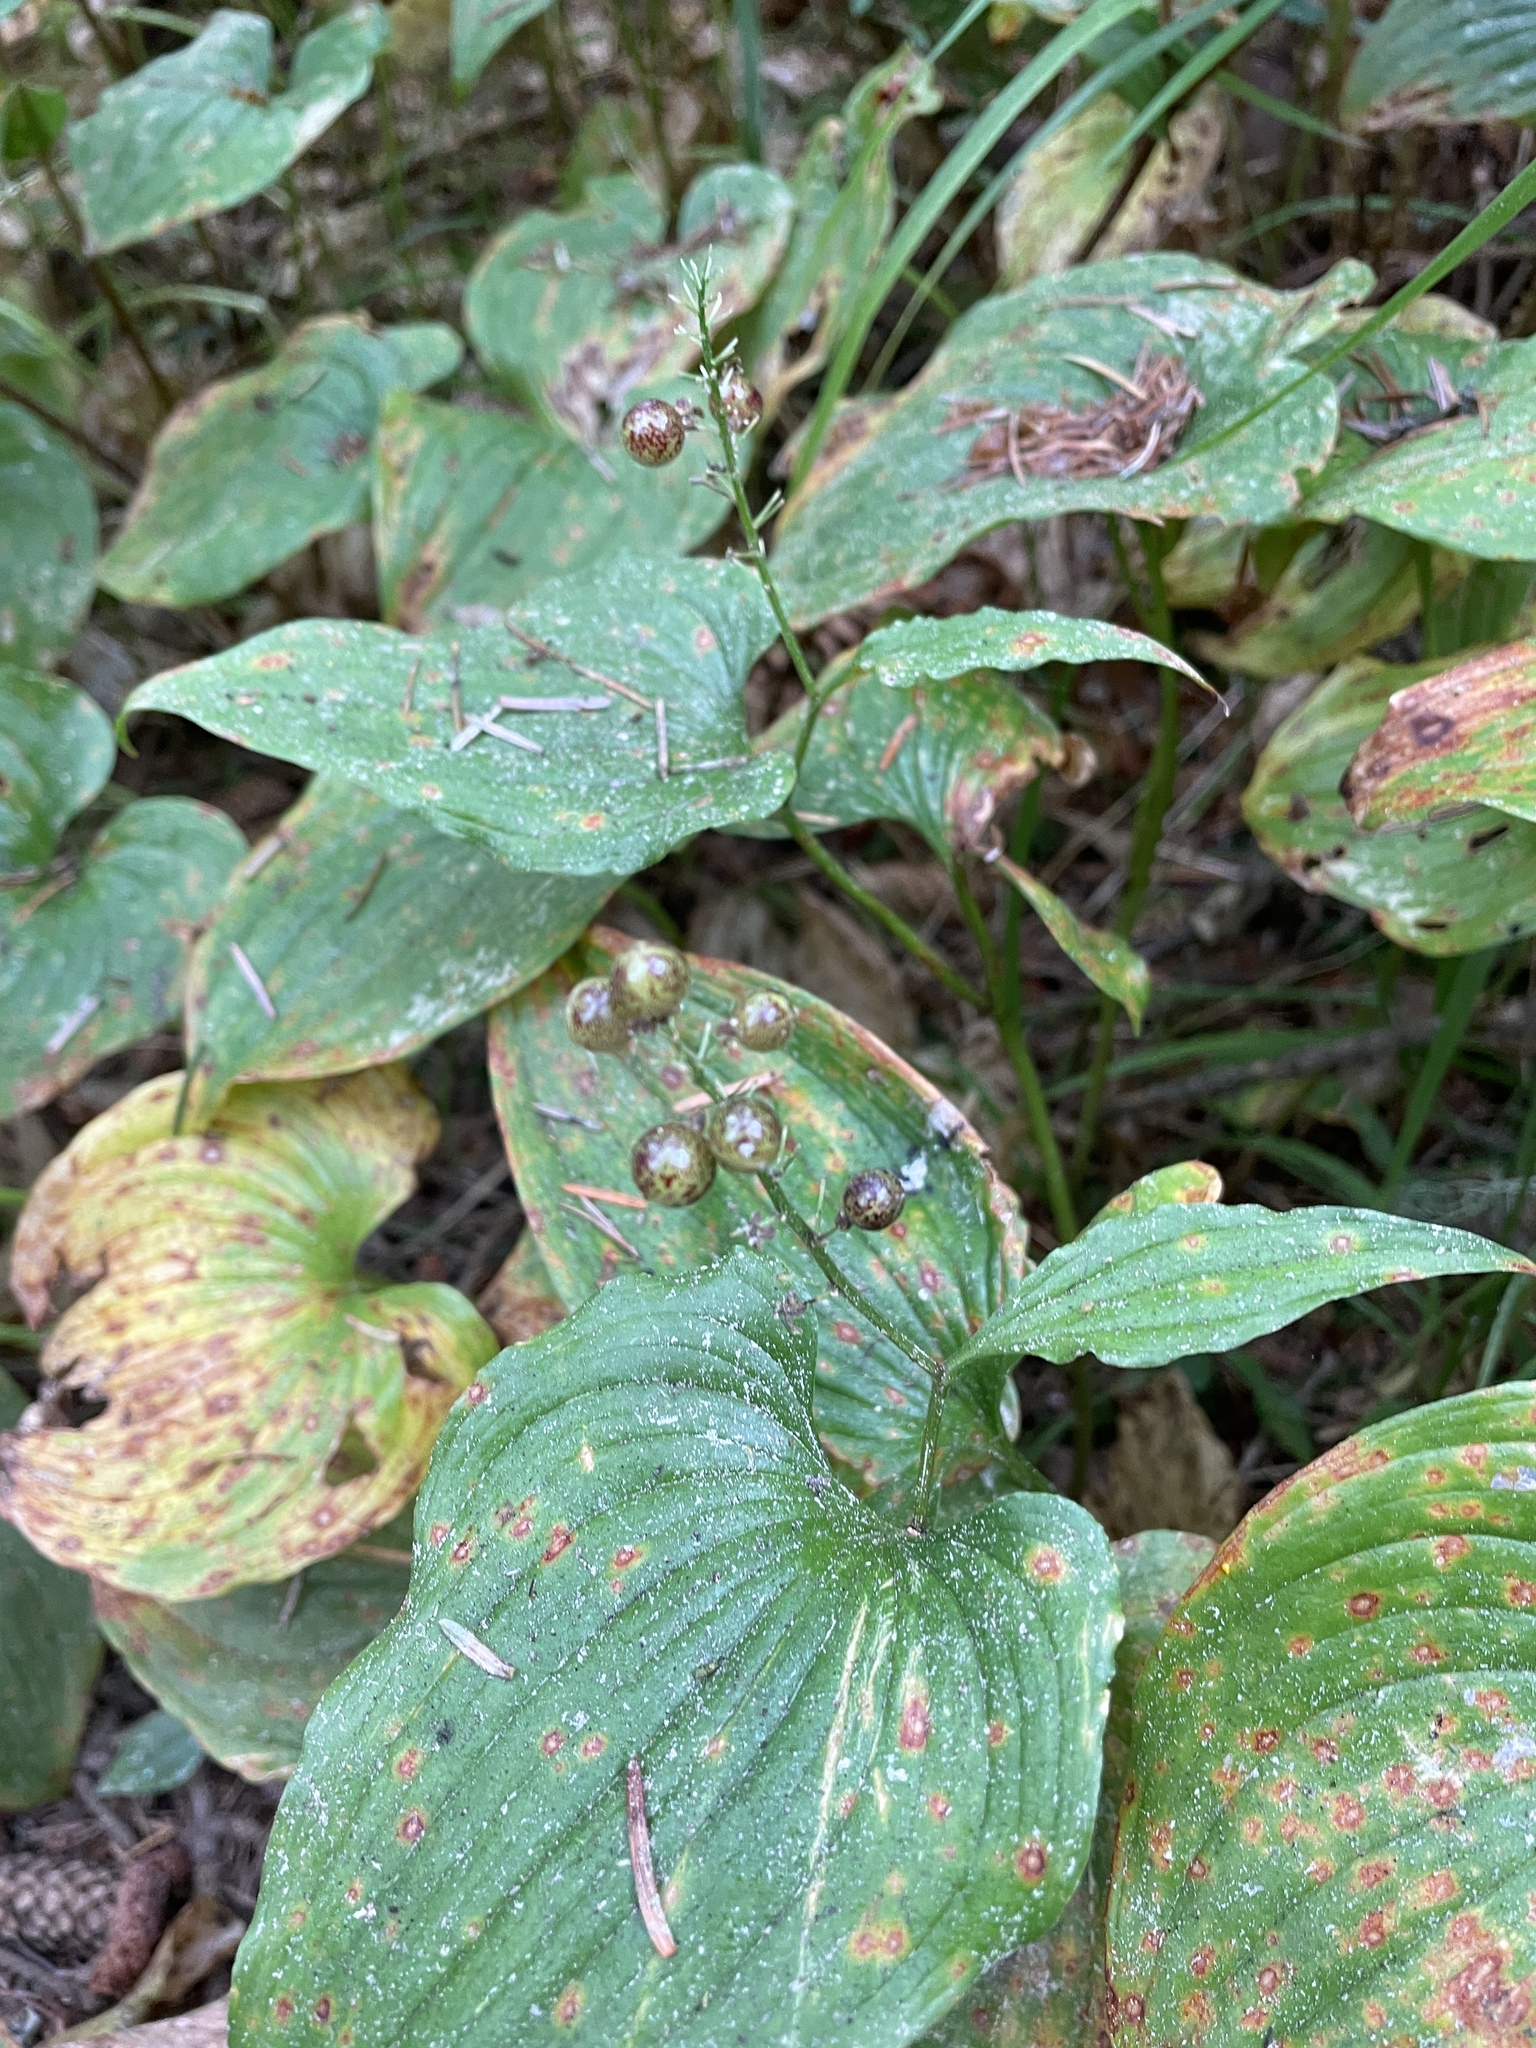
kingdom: Plantae
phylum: Tracheophyta
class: Liliopsida
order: Asparagales
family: Asparagaceae
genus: Maianthemum
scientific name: Maianthemum dilatatum
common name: False lily-of-the-valley
